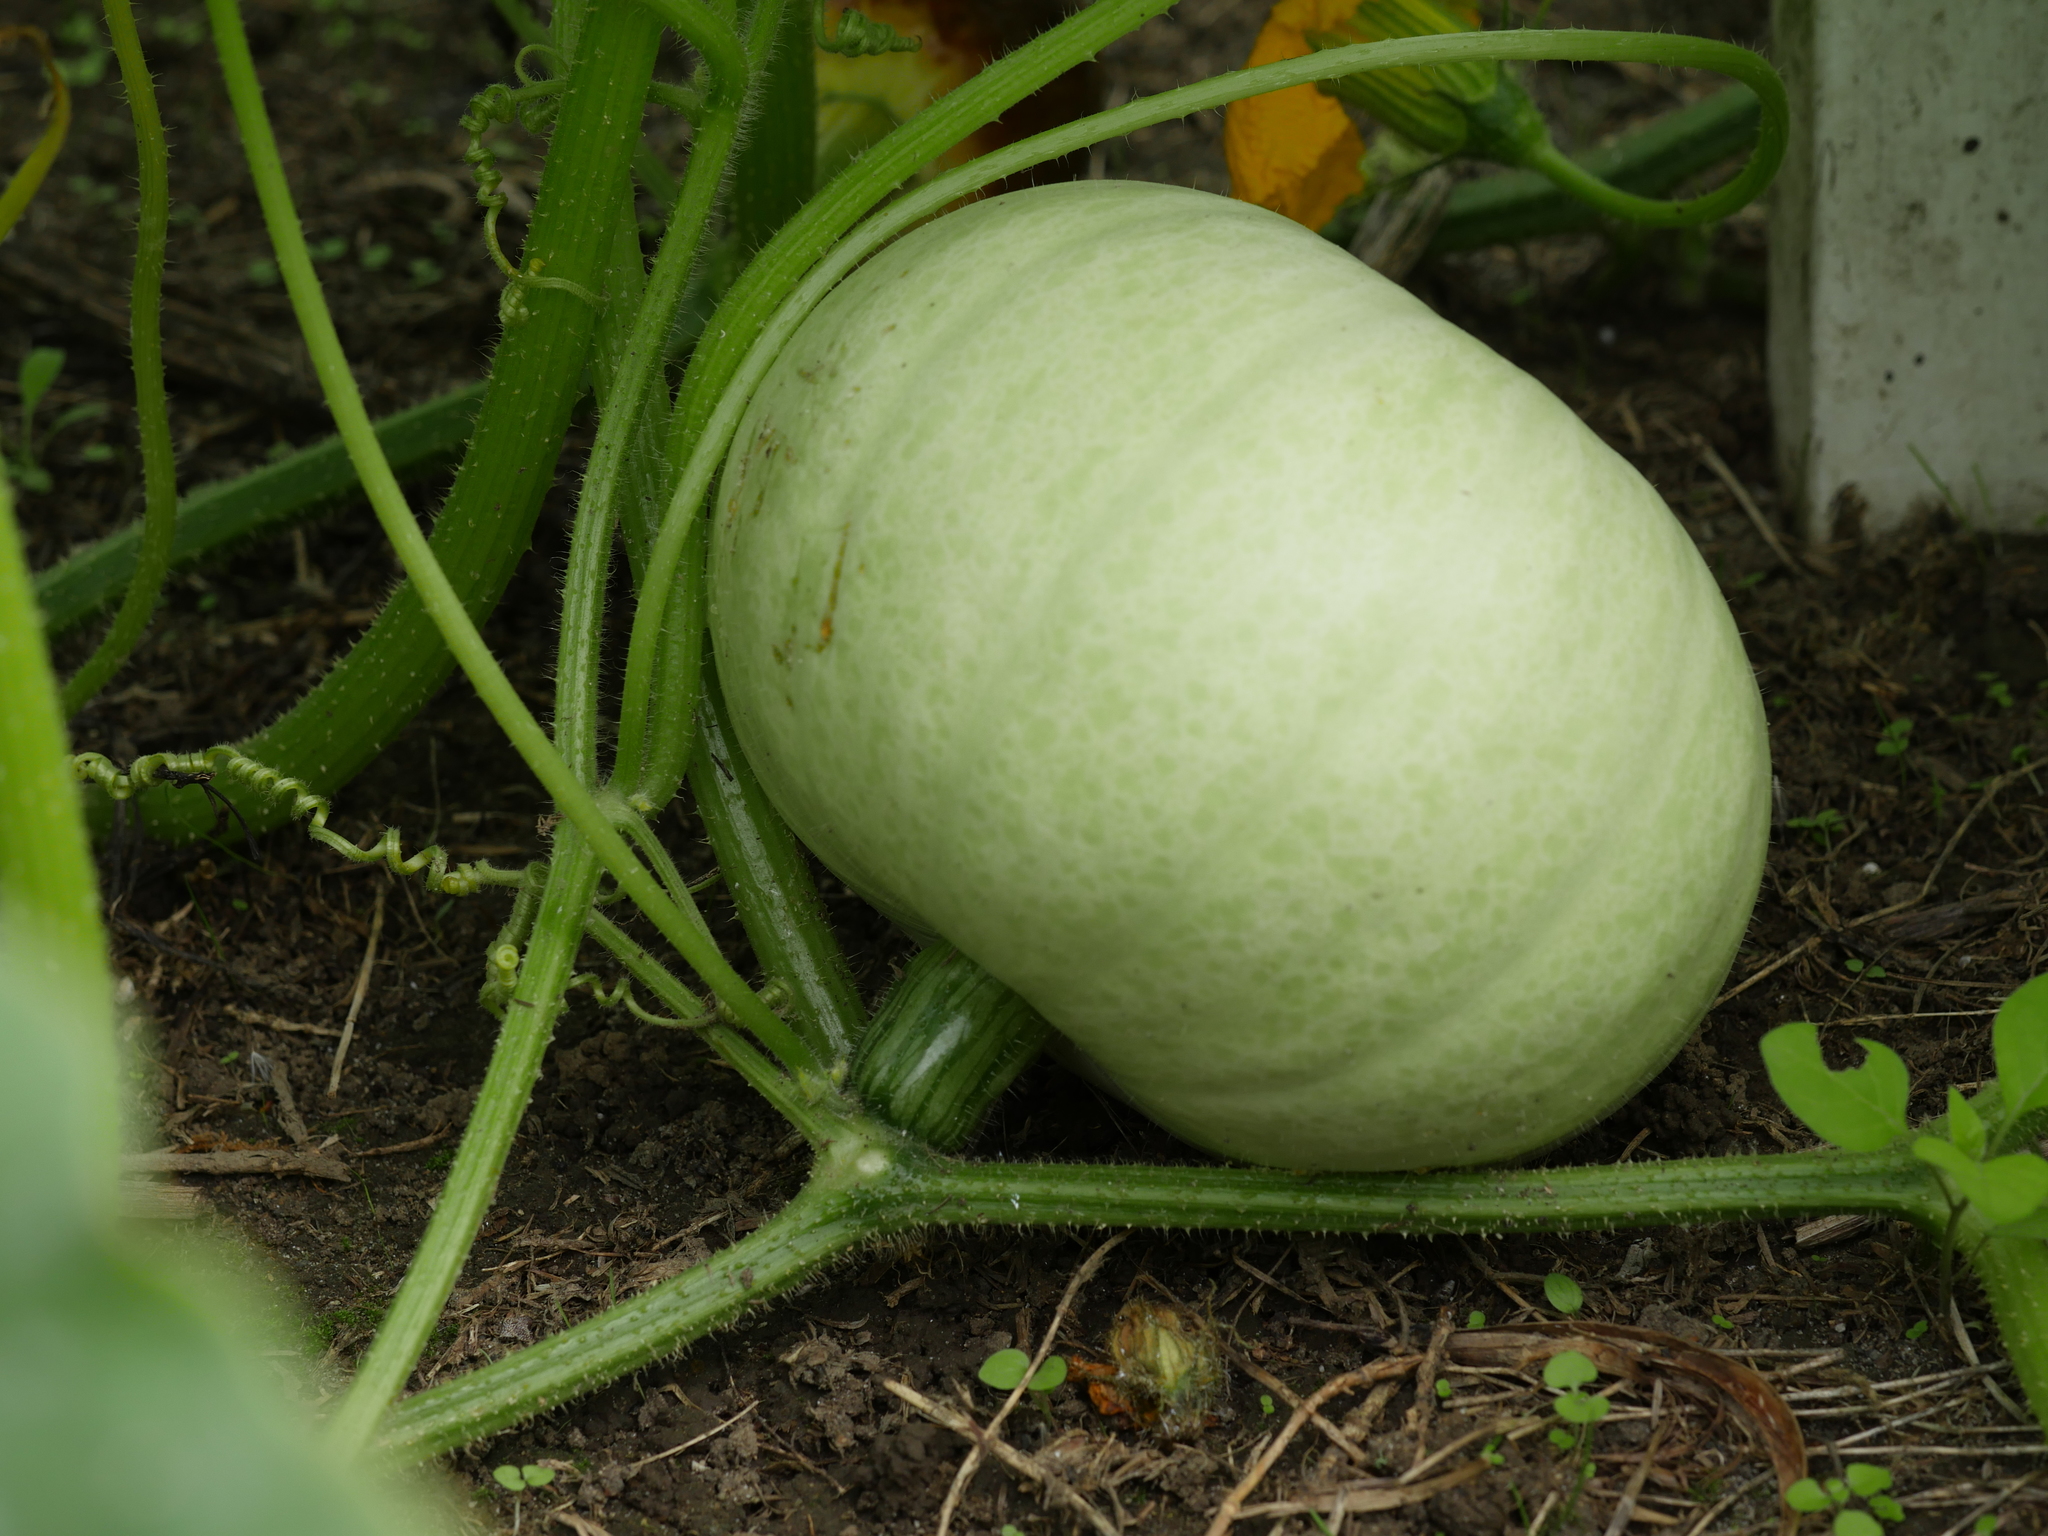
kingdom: Plantae
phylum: Tracheophyta
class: Magnoliopsida
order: Cucurbitales
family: Cucurbitaceae
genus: Cucurbita
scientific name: Cucurbita maxima
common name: Pumpkin
